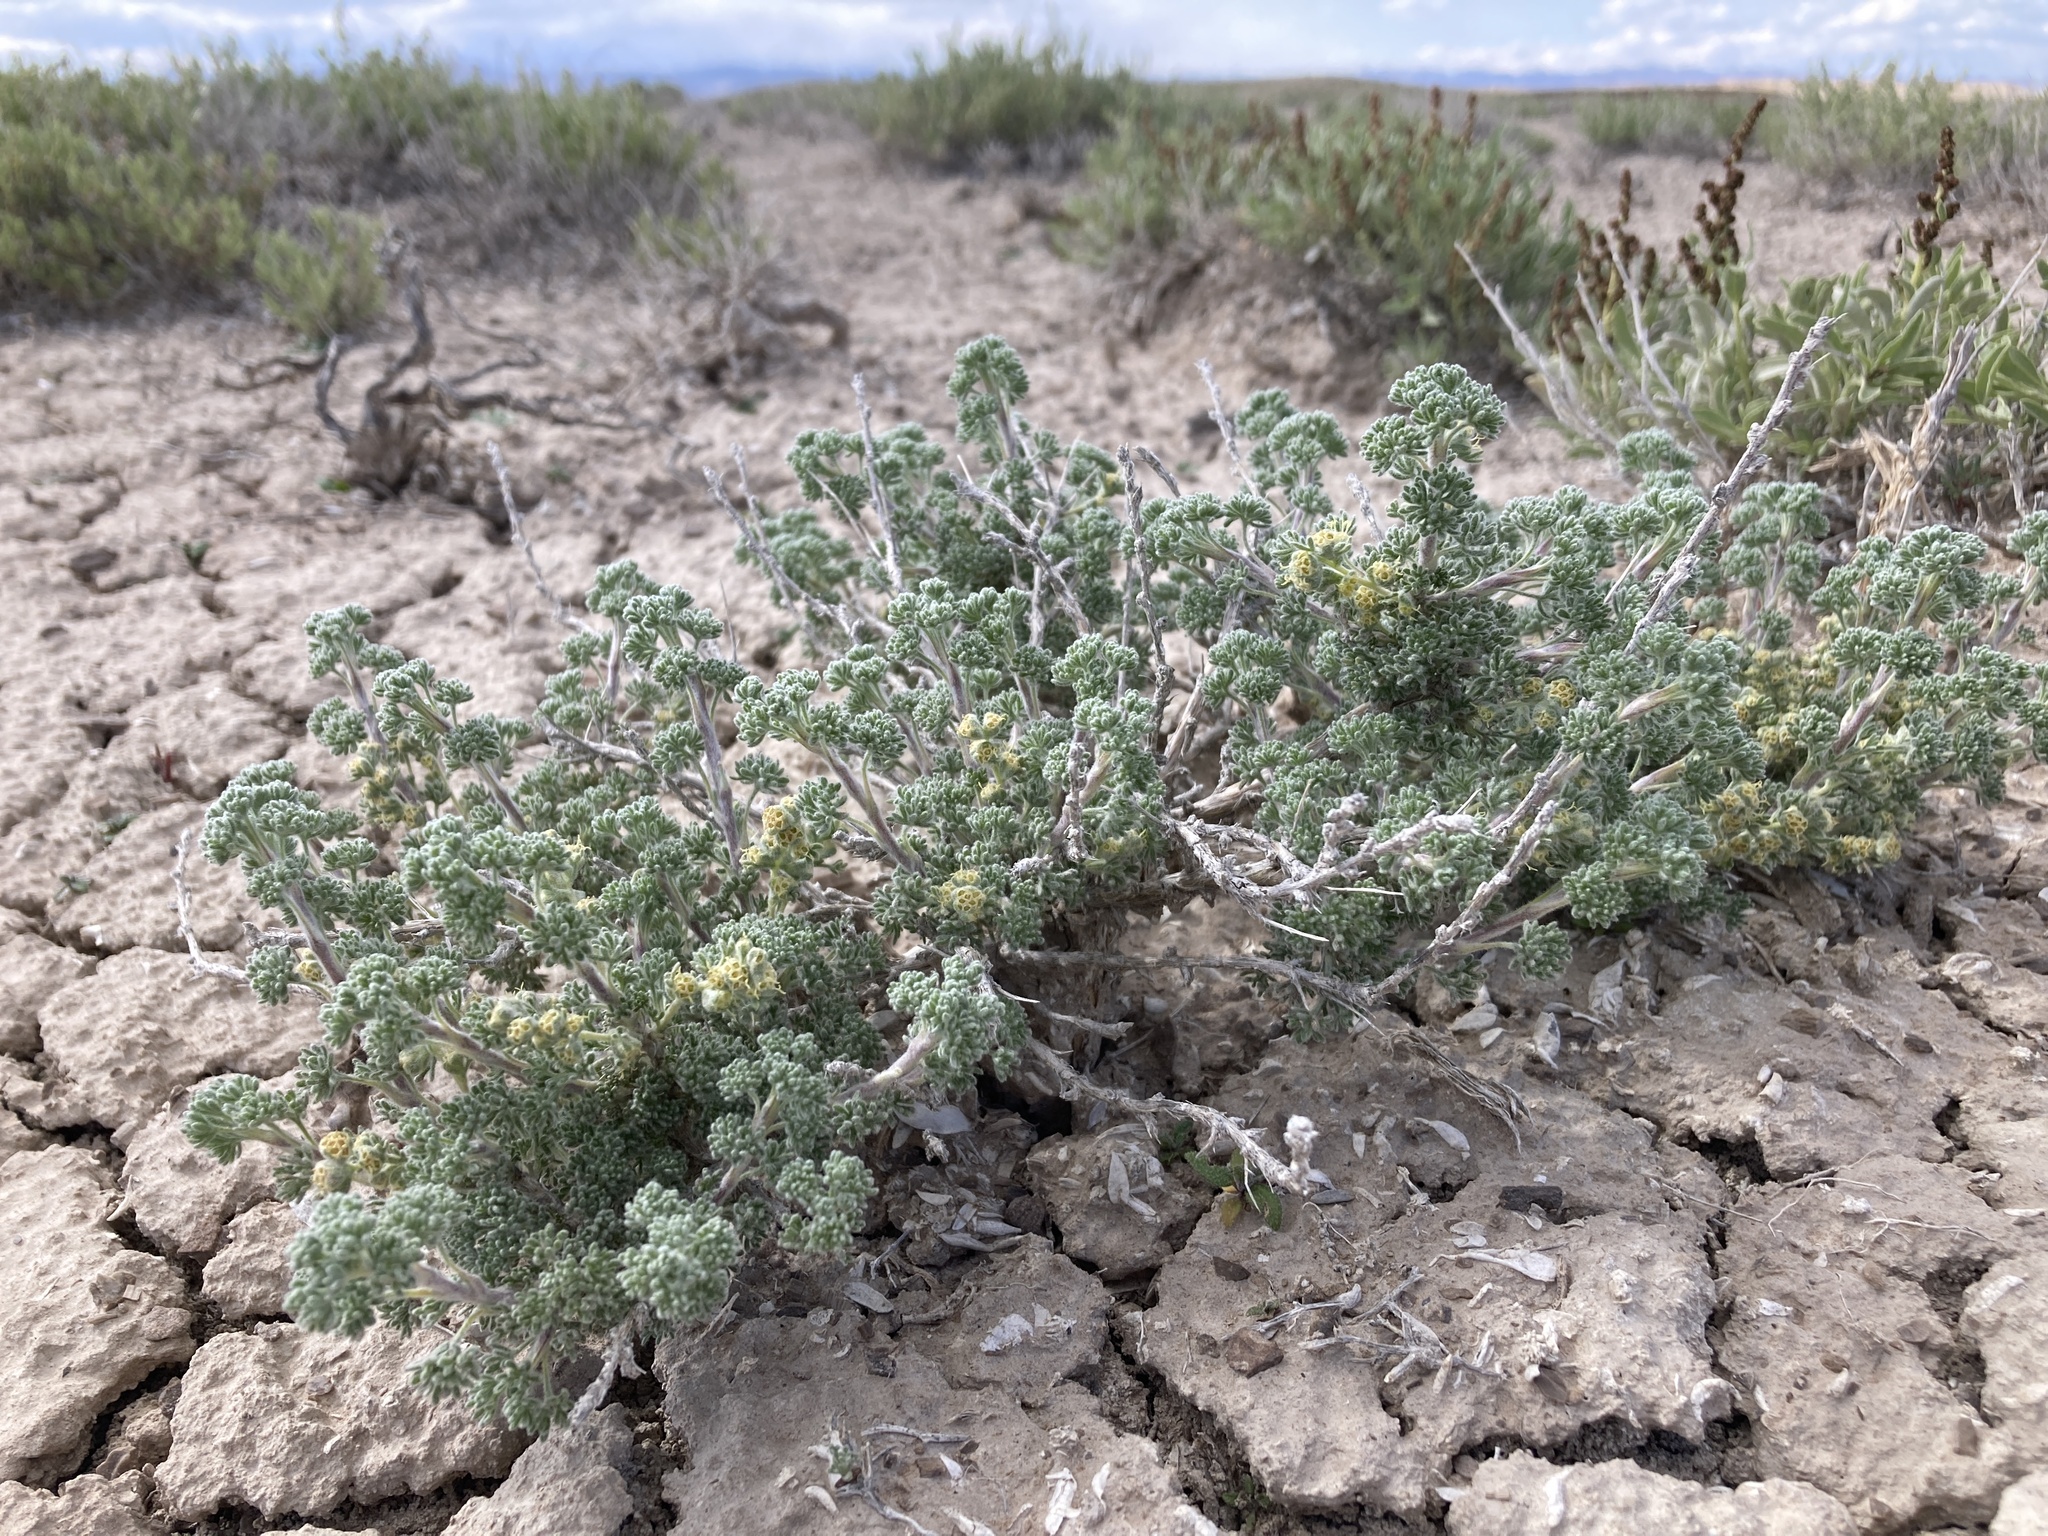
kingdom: Plantae
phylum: Tracheophyta
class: Magnoliopsida
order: Asterales
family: Asteraceae
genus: Artemisia
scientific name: Artemisia spinescens
